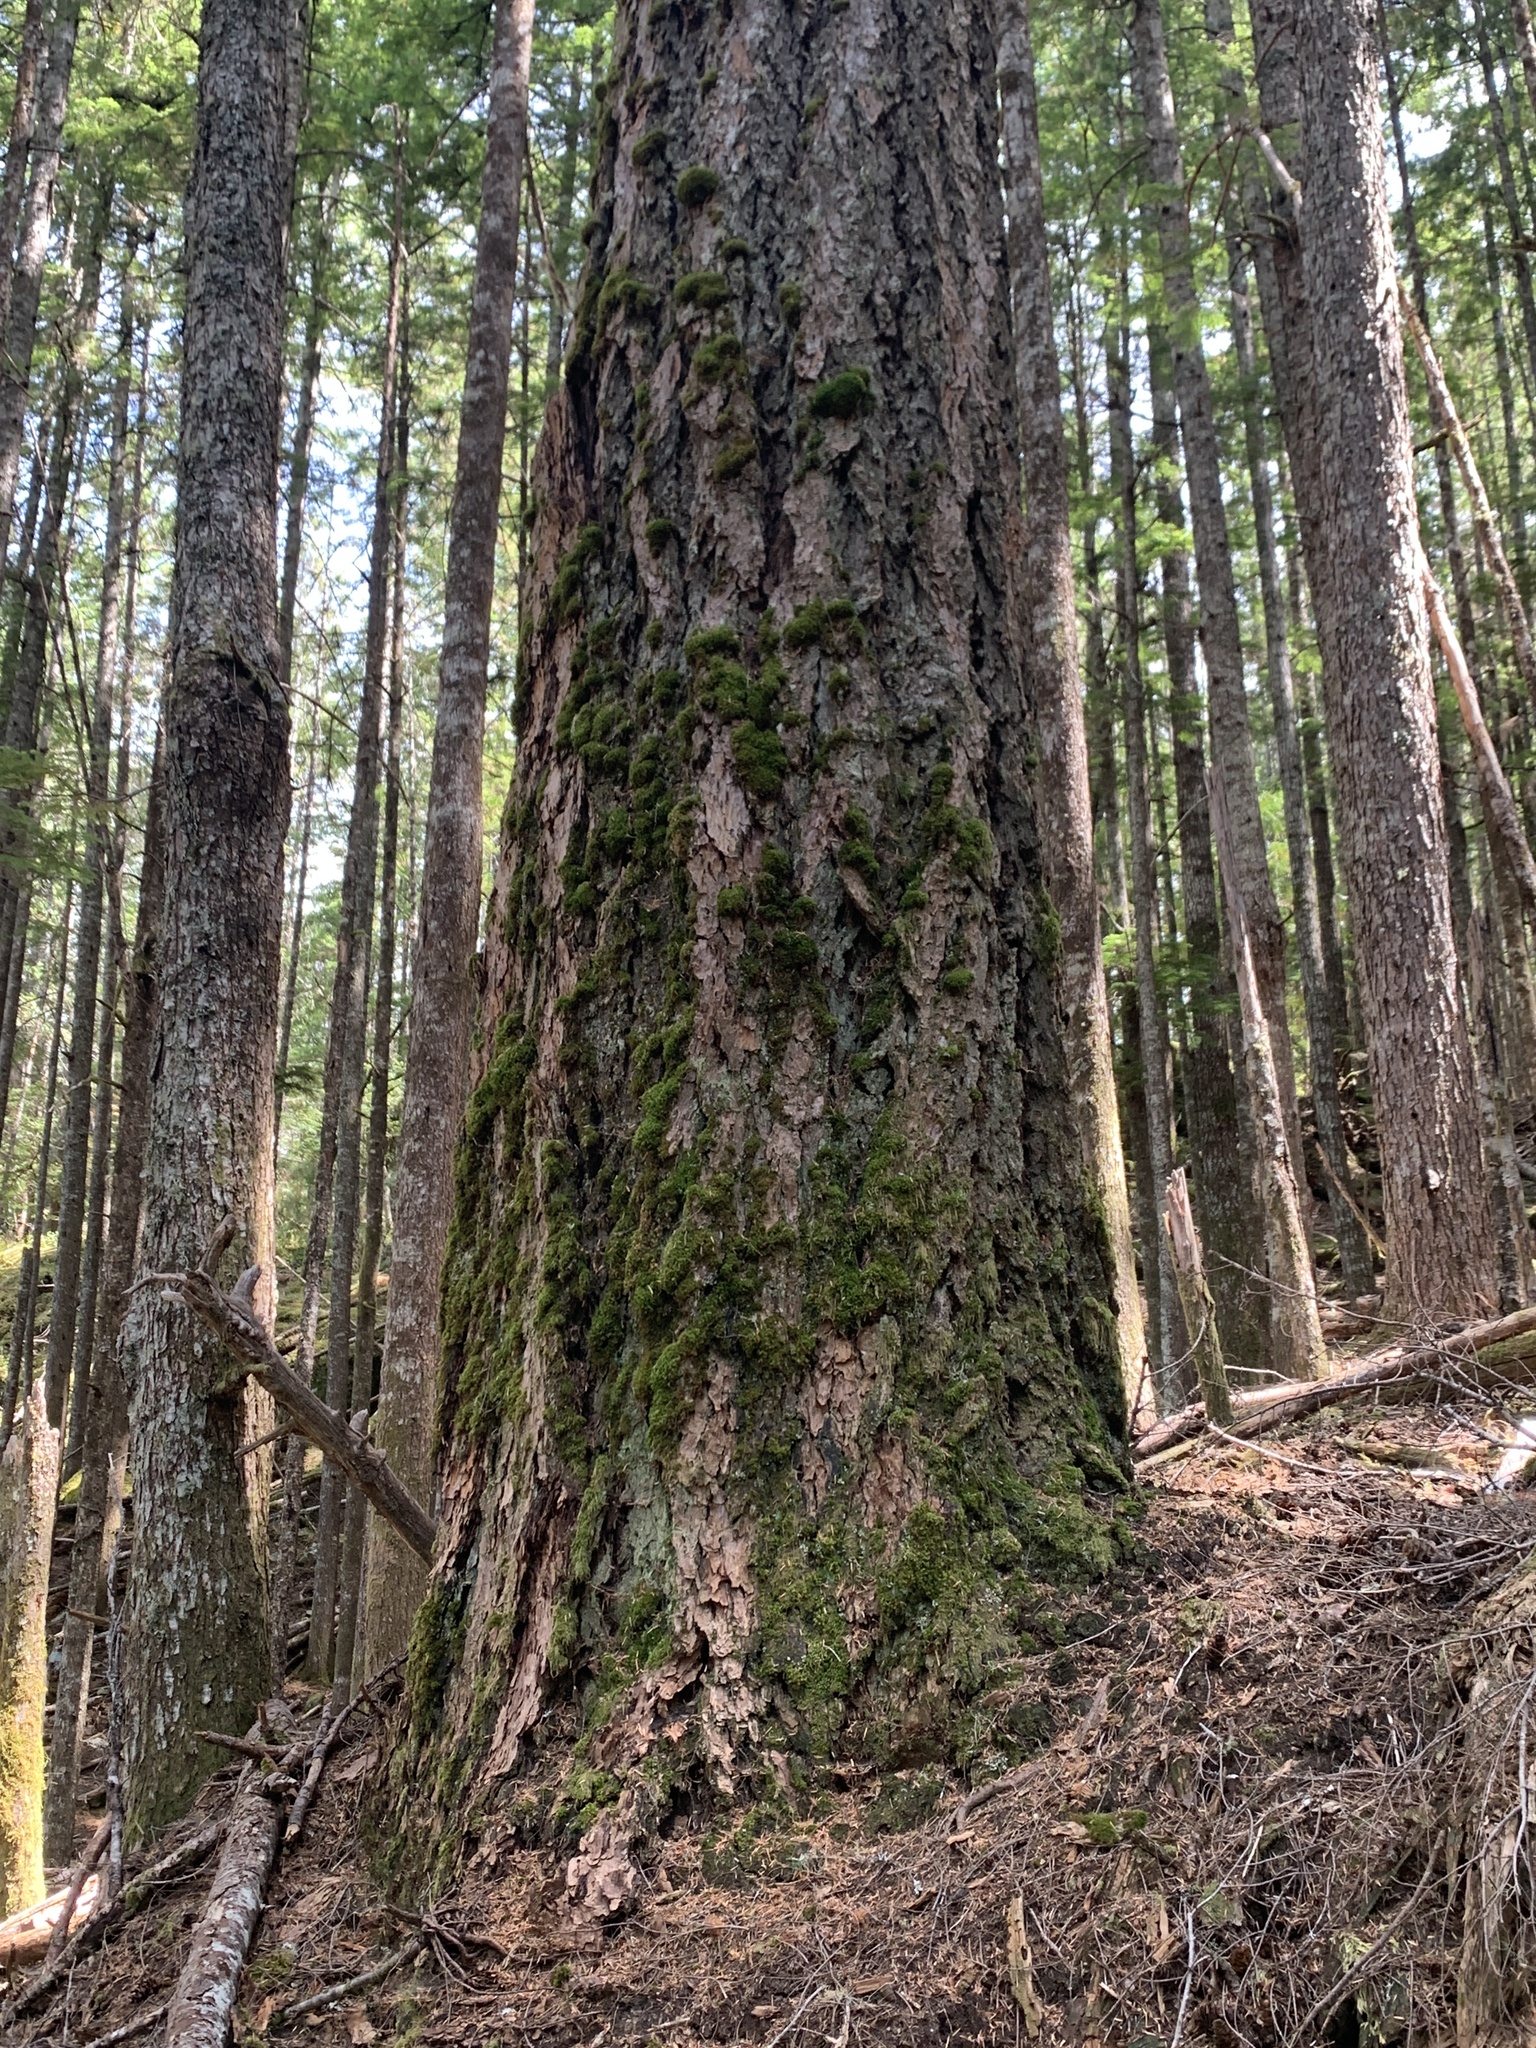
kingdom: Plantae
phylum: Tracheophyta
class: Pinopsida
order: Pinales
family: Pinaceae
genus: Pseudotsuga
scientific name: Pseudotsuga menziesii
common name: Douglas fir
